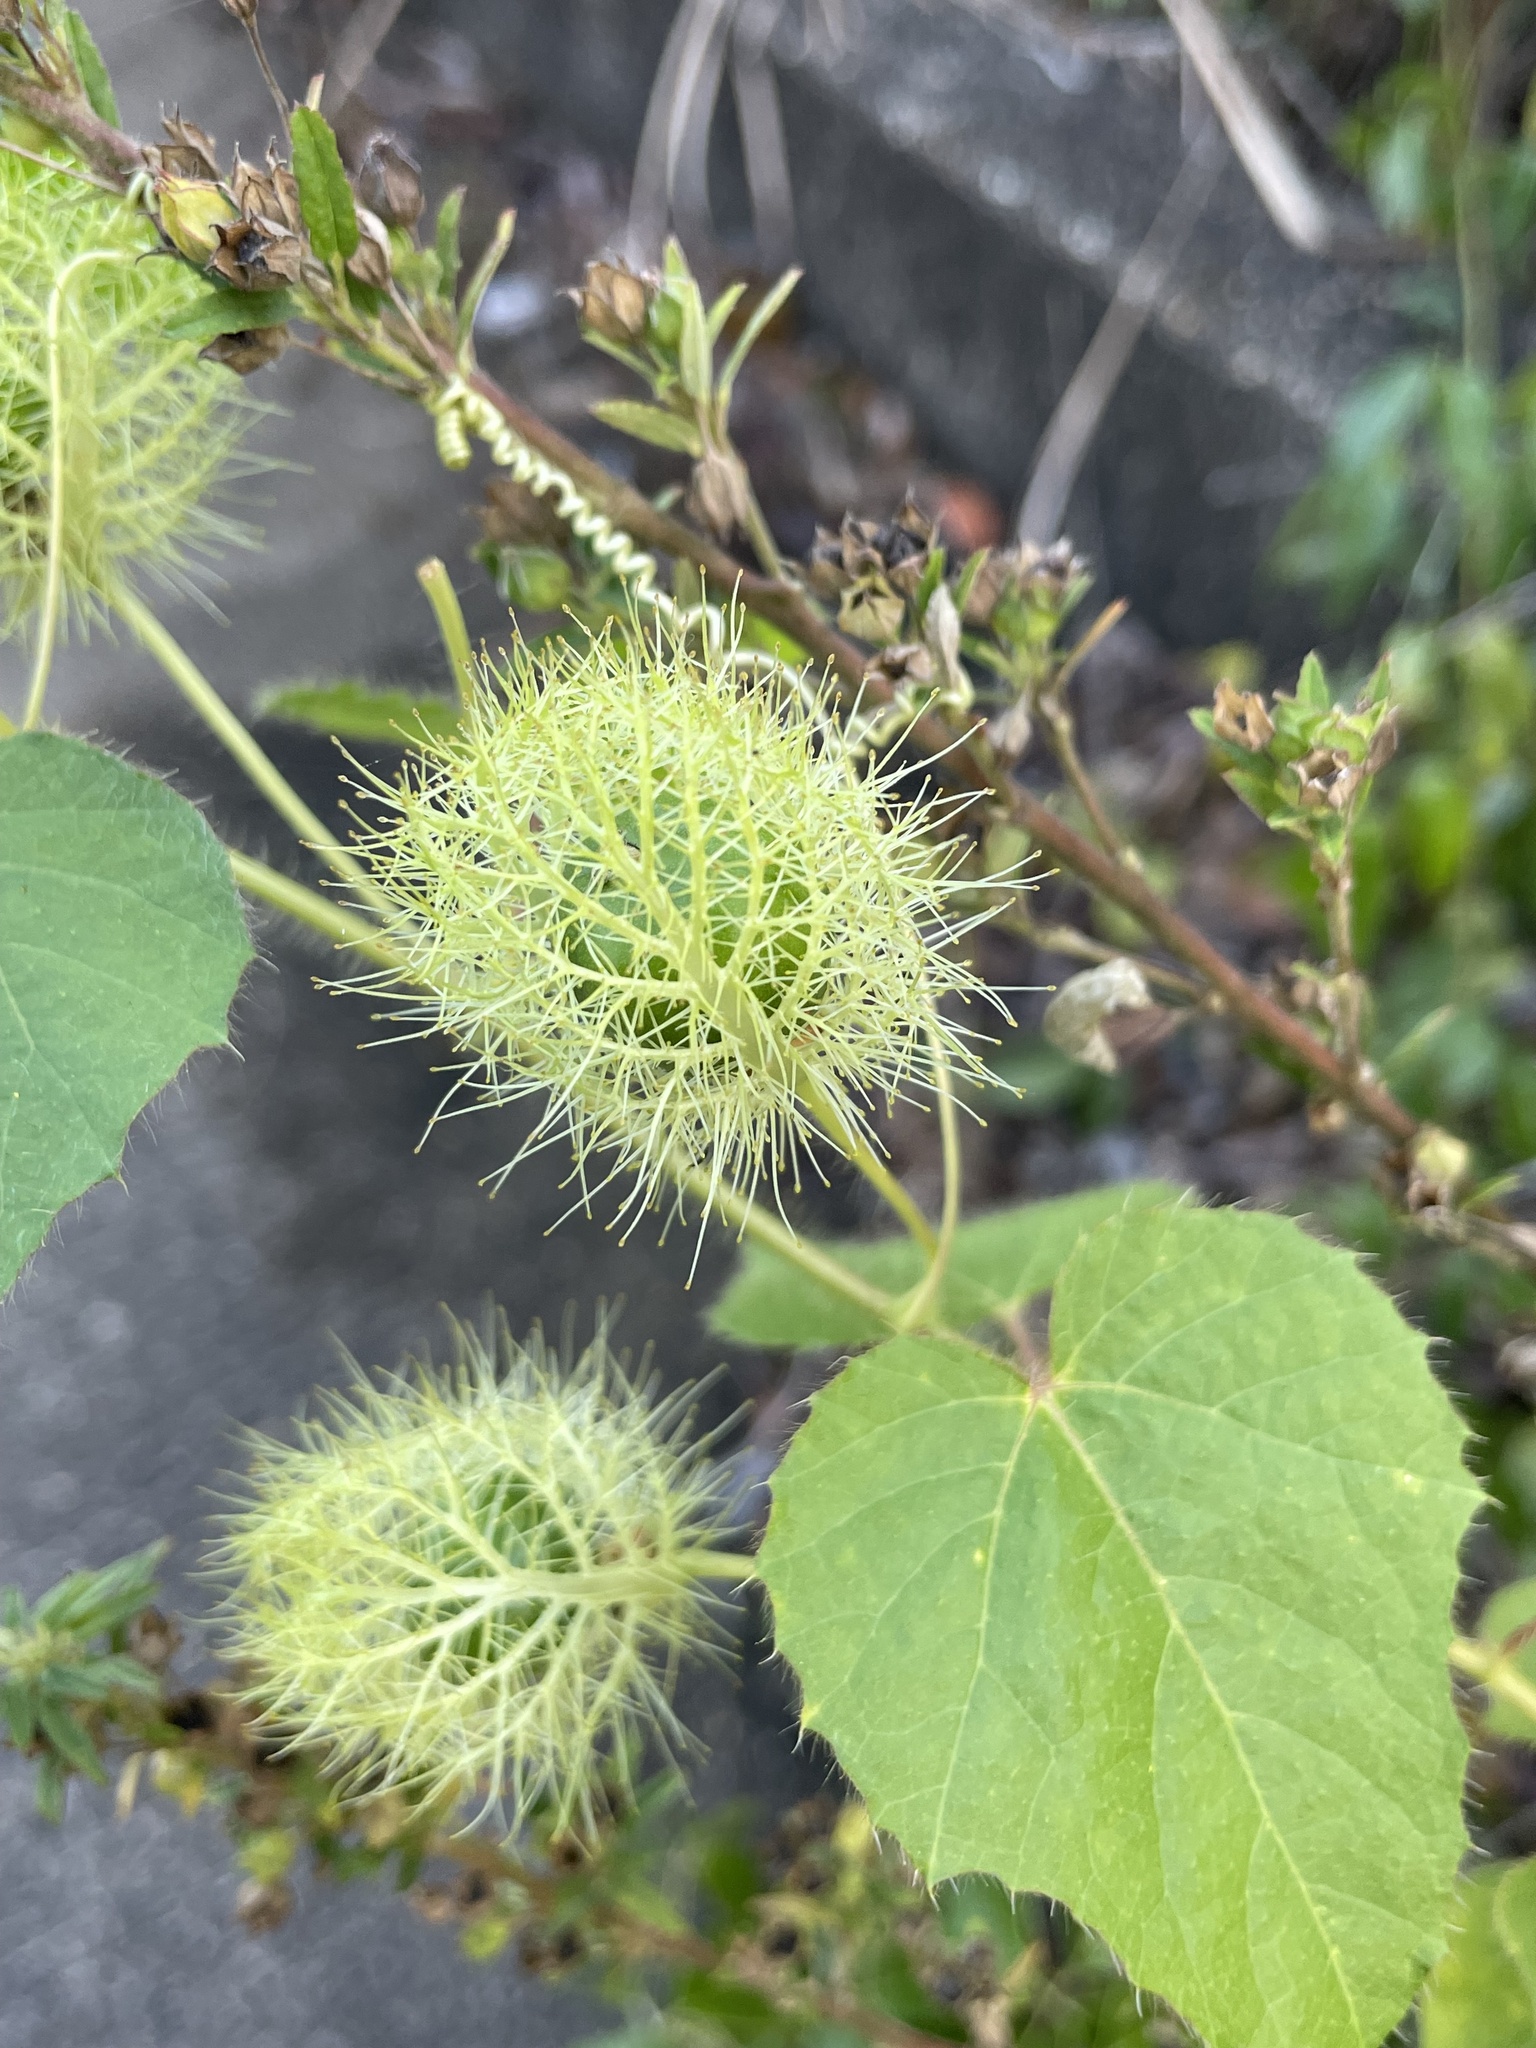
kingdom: Plantae
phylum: Tracheophyta
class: Magnoliopsida
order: Malpighiales
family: Passifloraceae
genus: Passiflora
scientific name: Passiflora foetida
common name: Fetid passionflower
